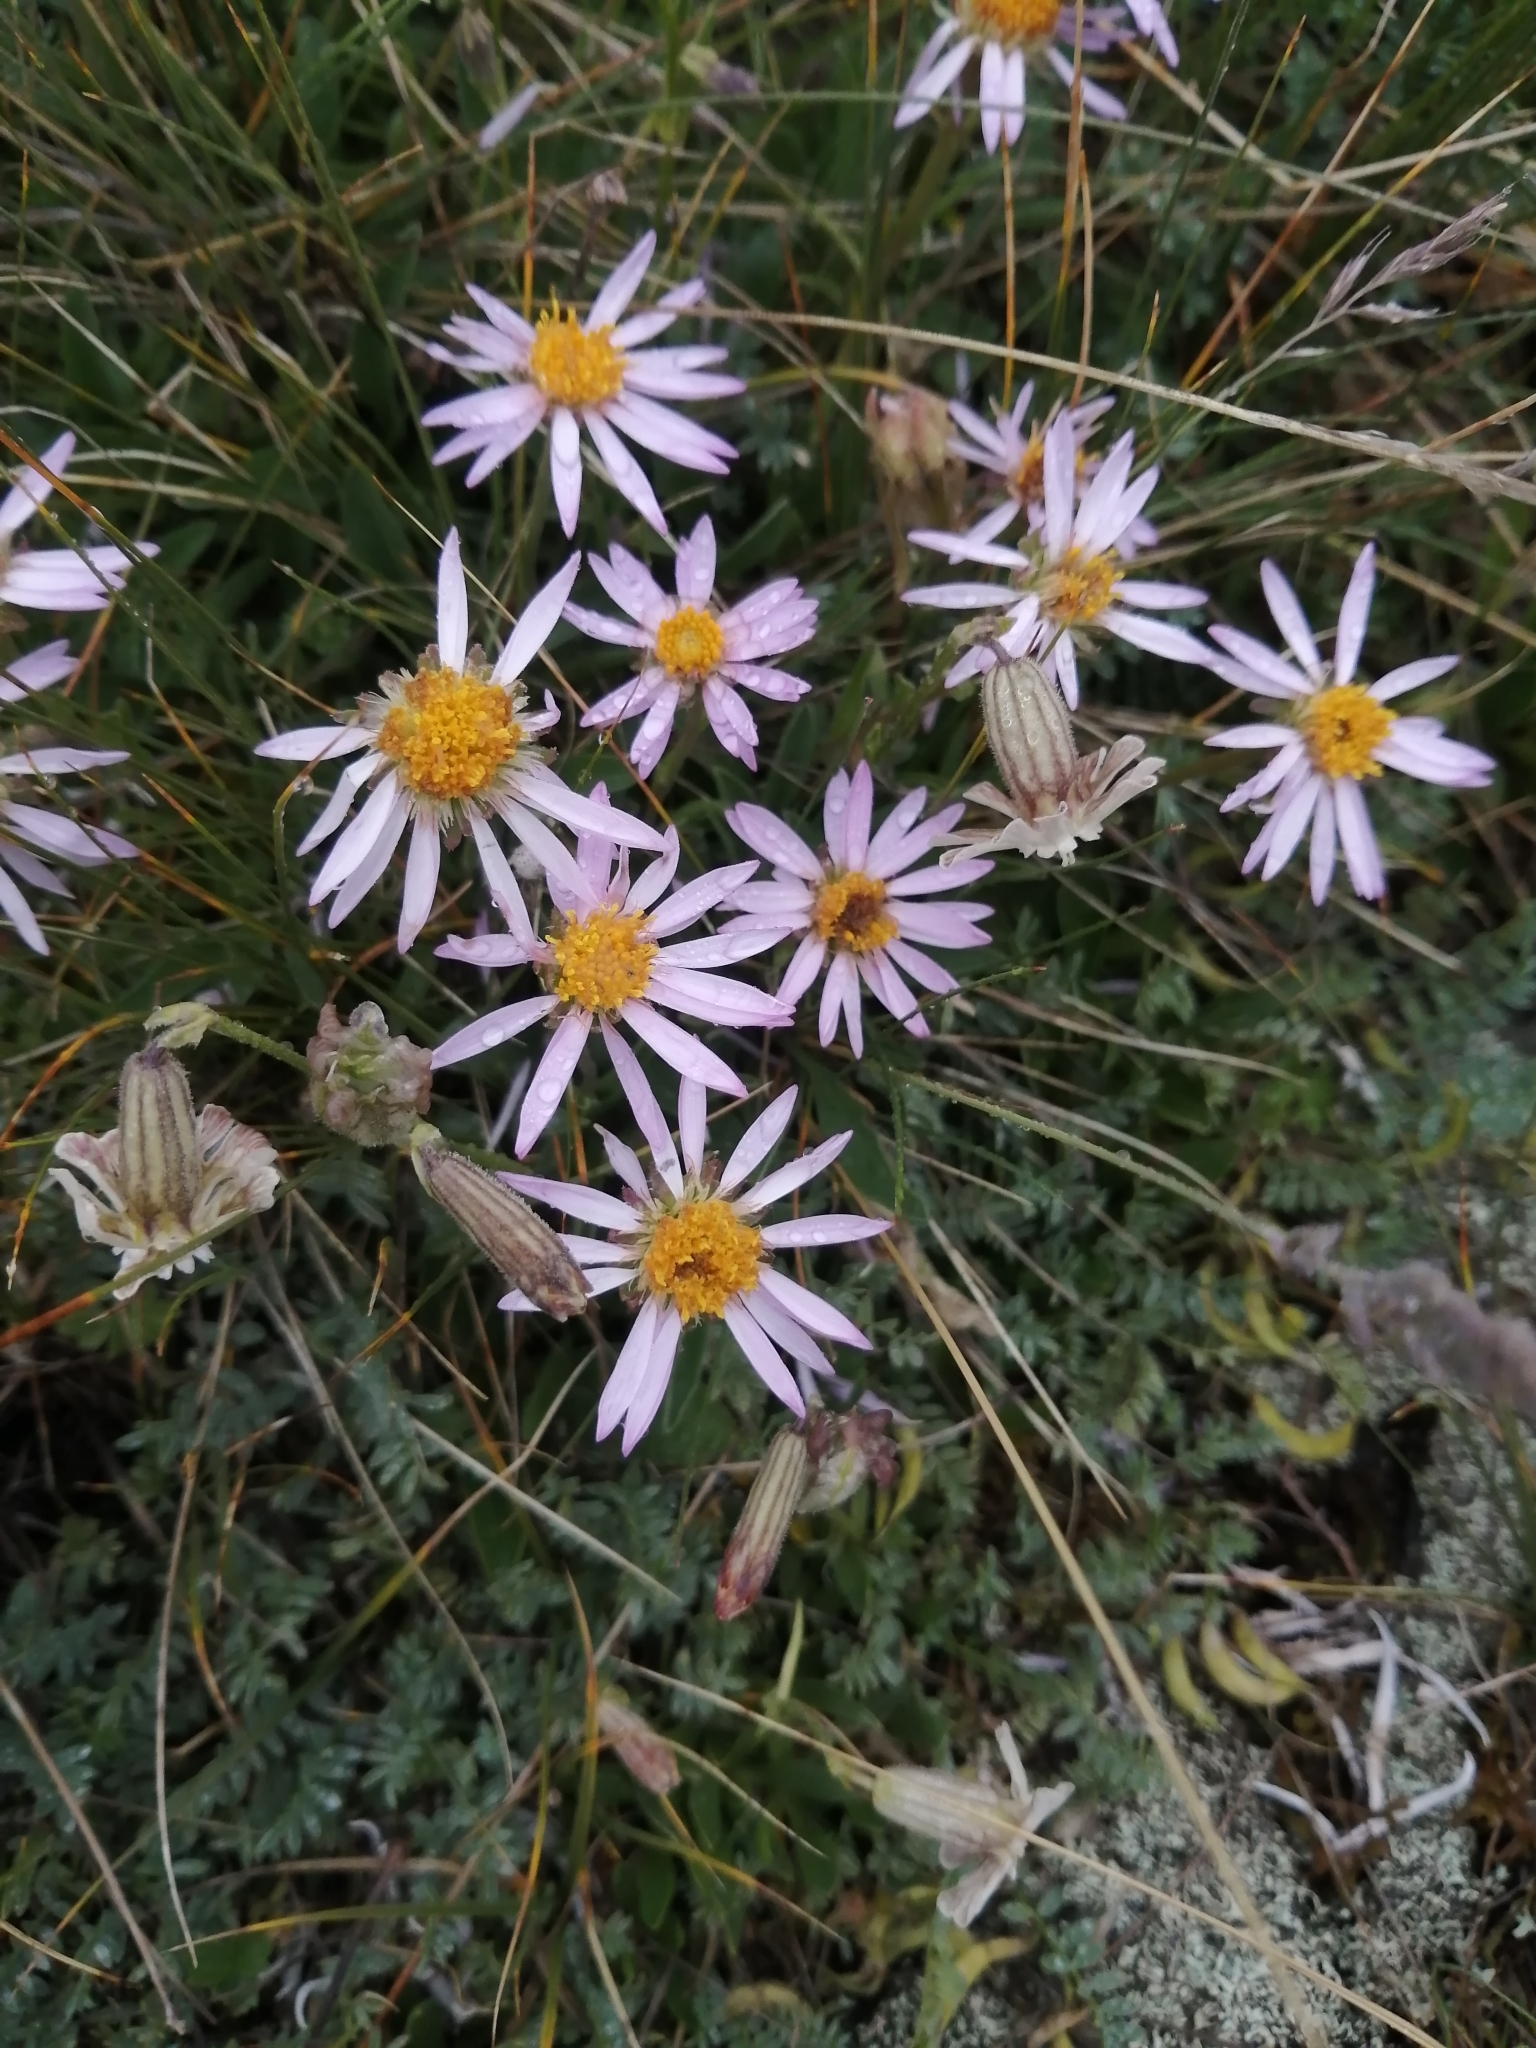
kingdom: Plantae
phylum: Tracheophyta
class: Magnoliopsida
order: Asterales
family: Asteraceae
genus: Aster
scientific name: Aster alpinus
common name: Alpine aster
